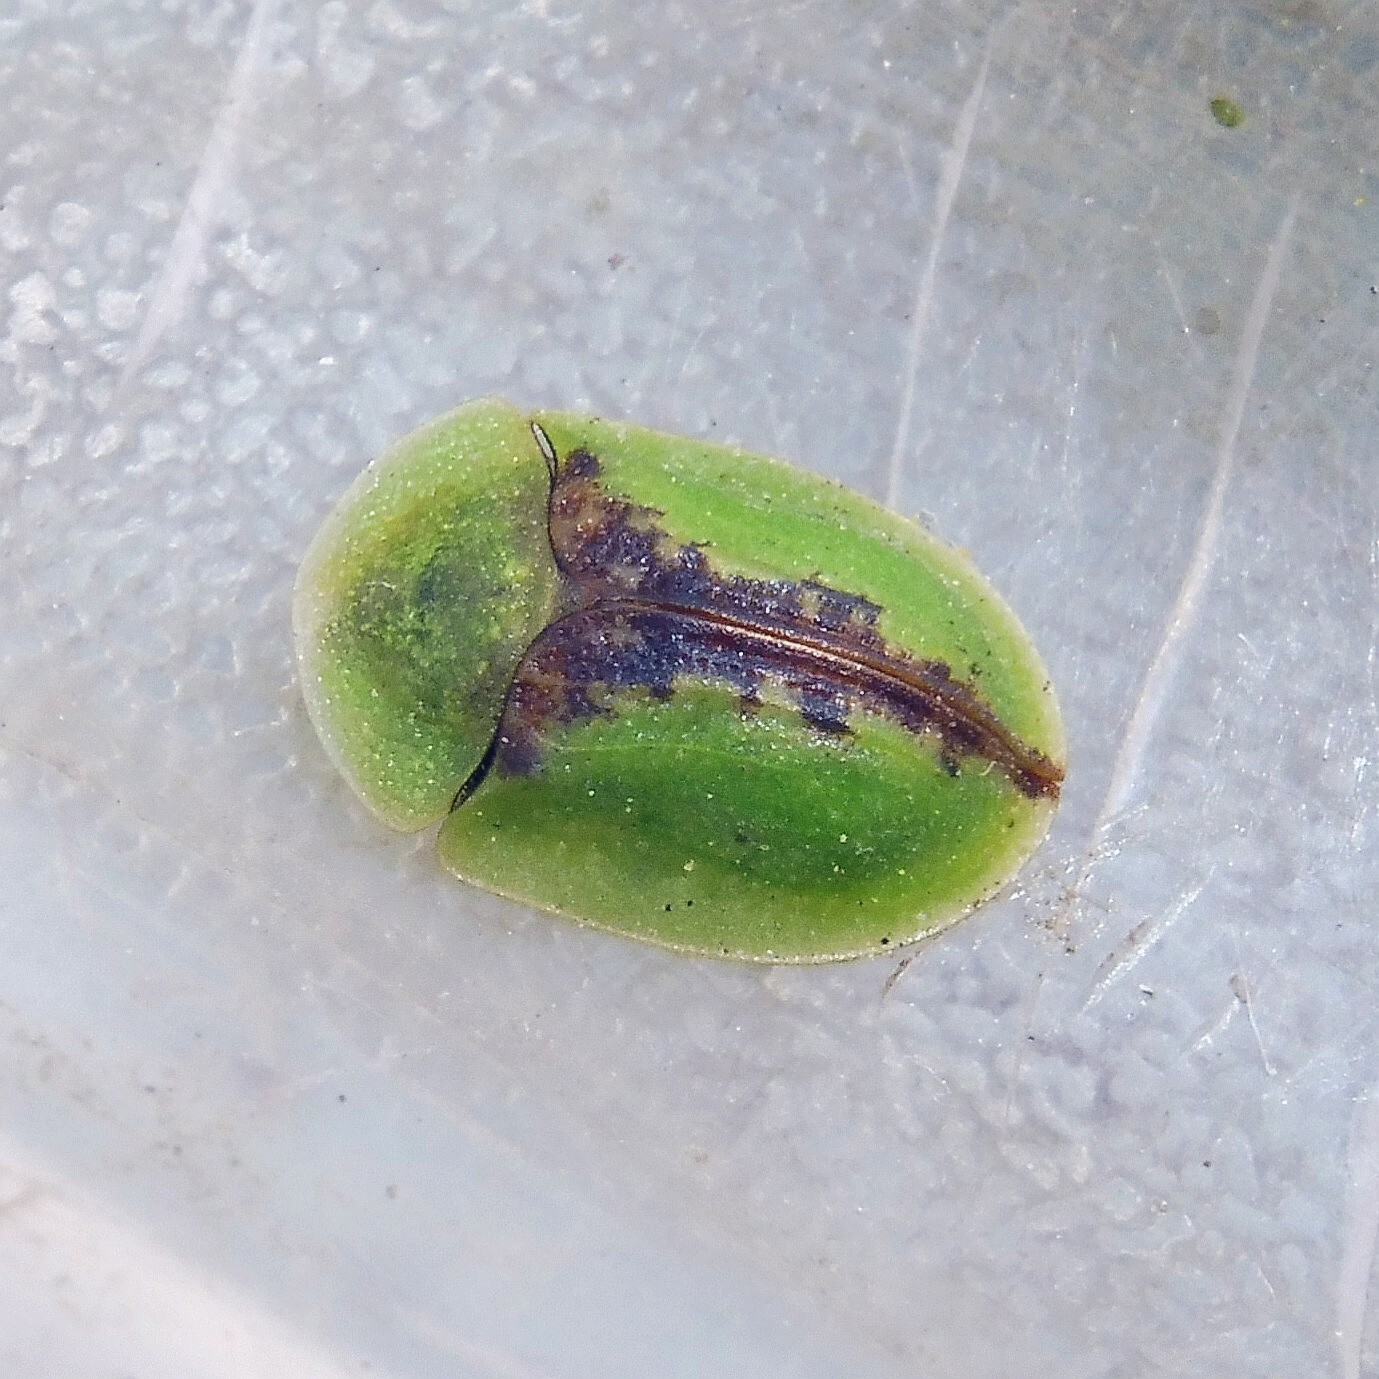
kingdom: Animalia
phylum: Arthropoda
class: Insecta
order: Coleoptera
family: Chrysomelidae
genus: Cassida
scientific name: Cassida vibex
